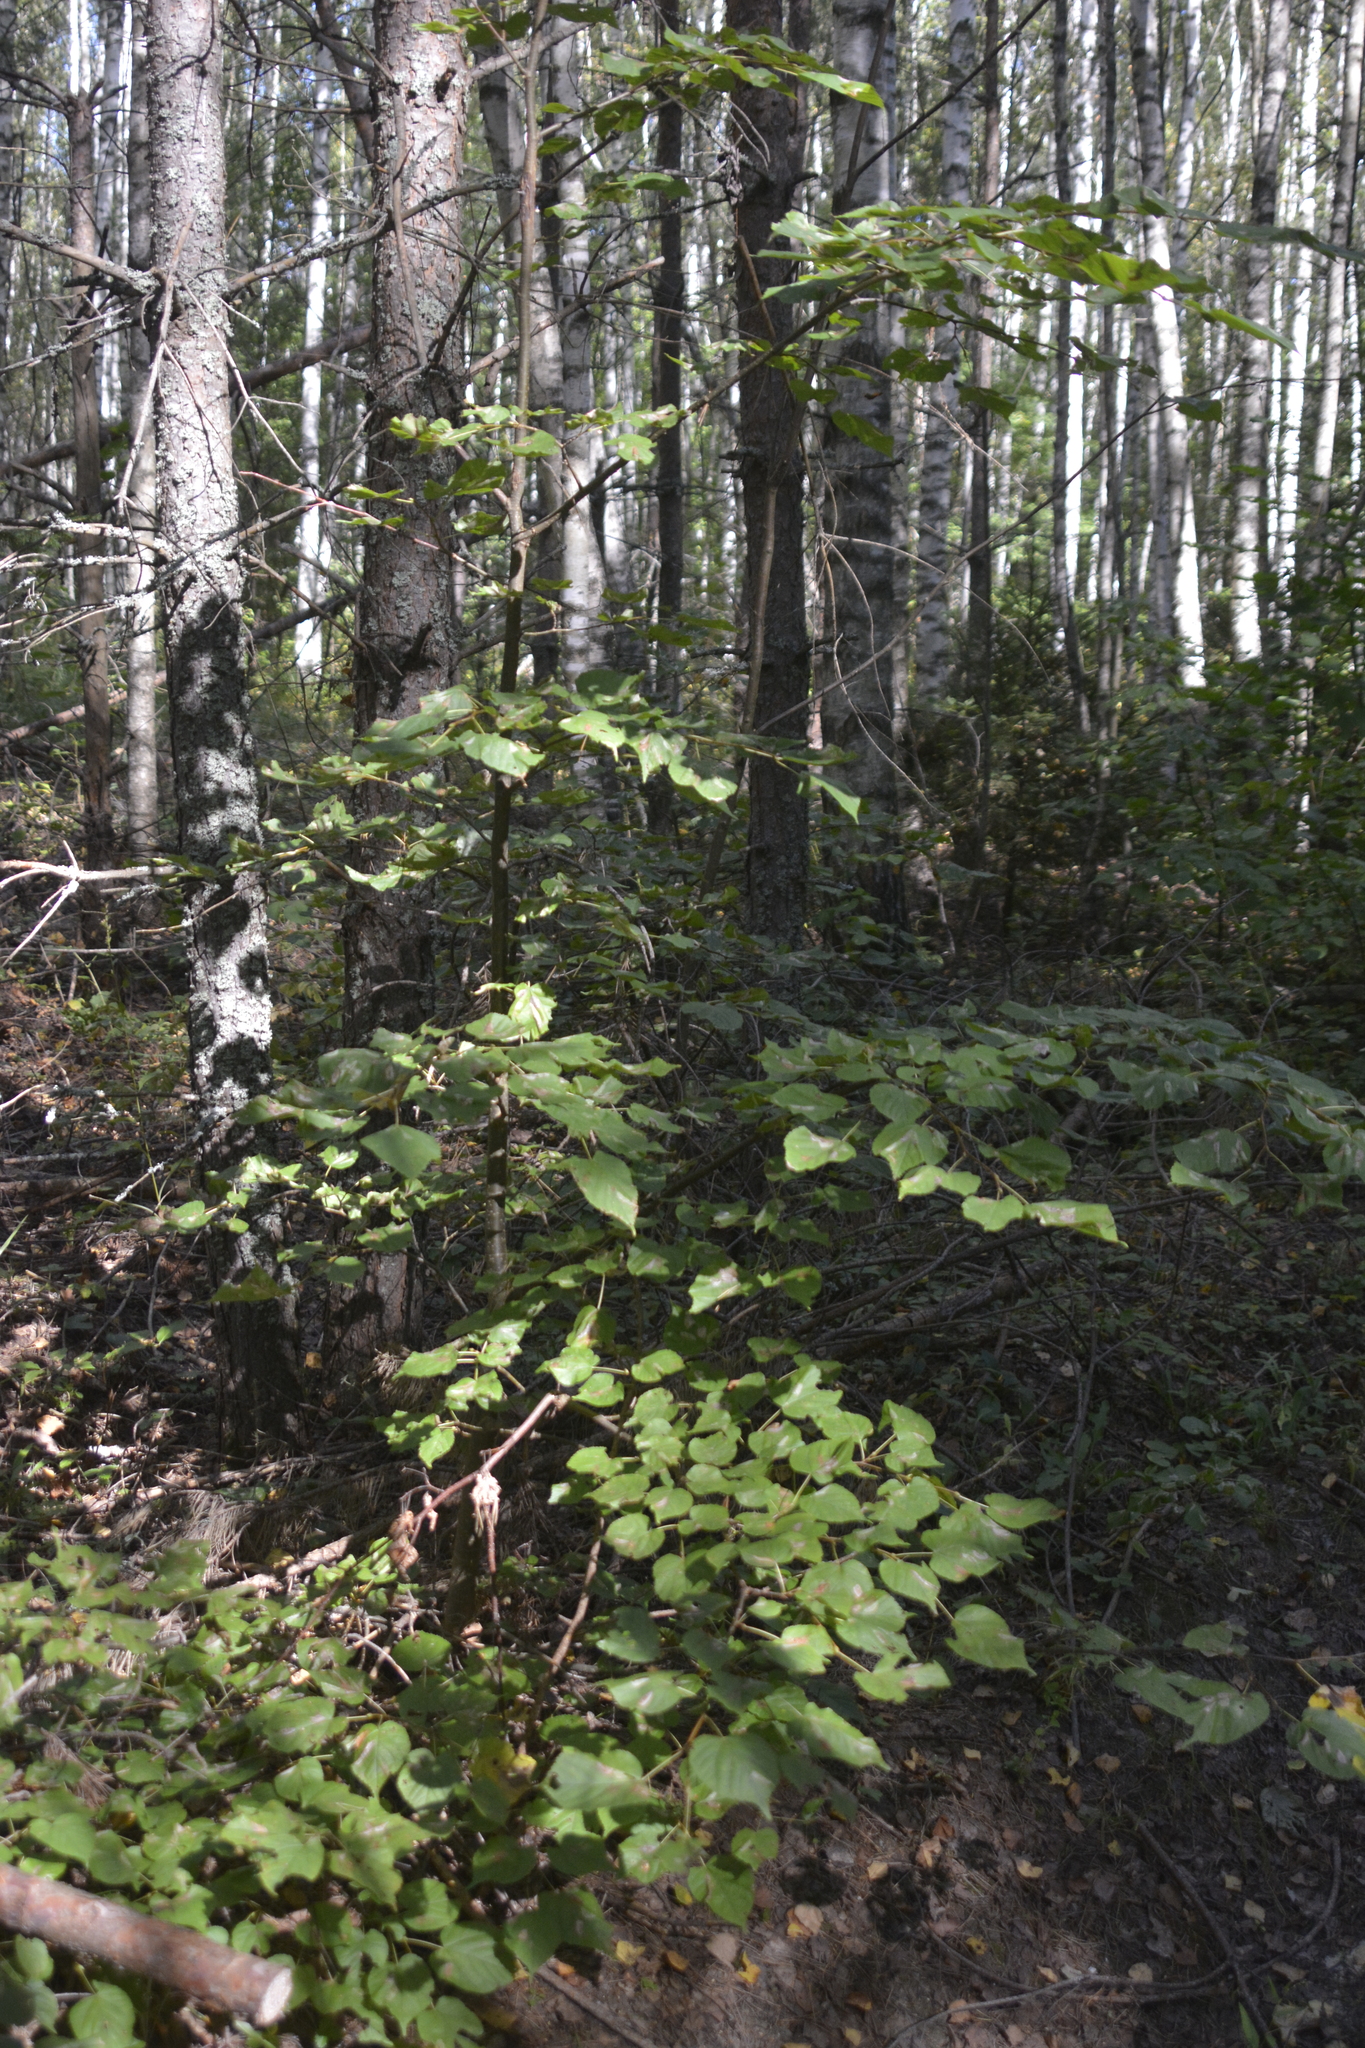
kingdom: Plantae
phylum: Tracheophyta
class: Magnoliopsida
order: Malvales
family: Malvaceae
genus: Tilia
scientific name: Tilia cordata
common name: Small-leaved lime
